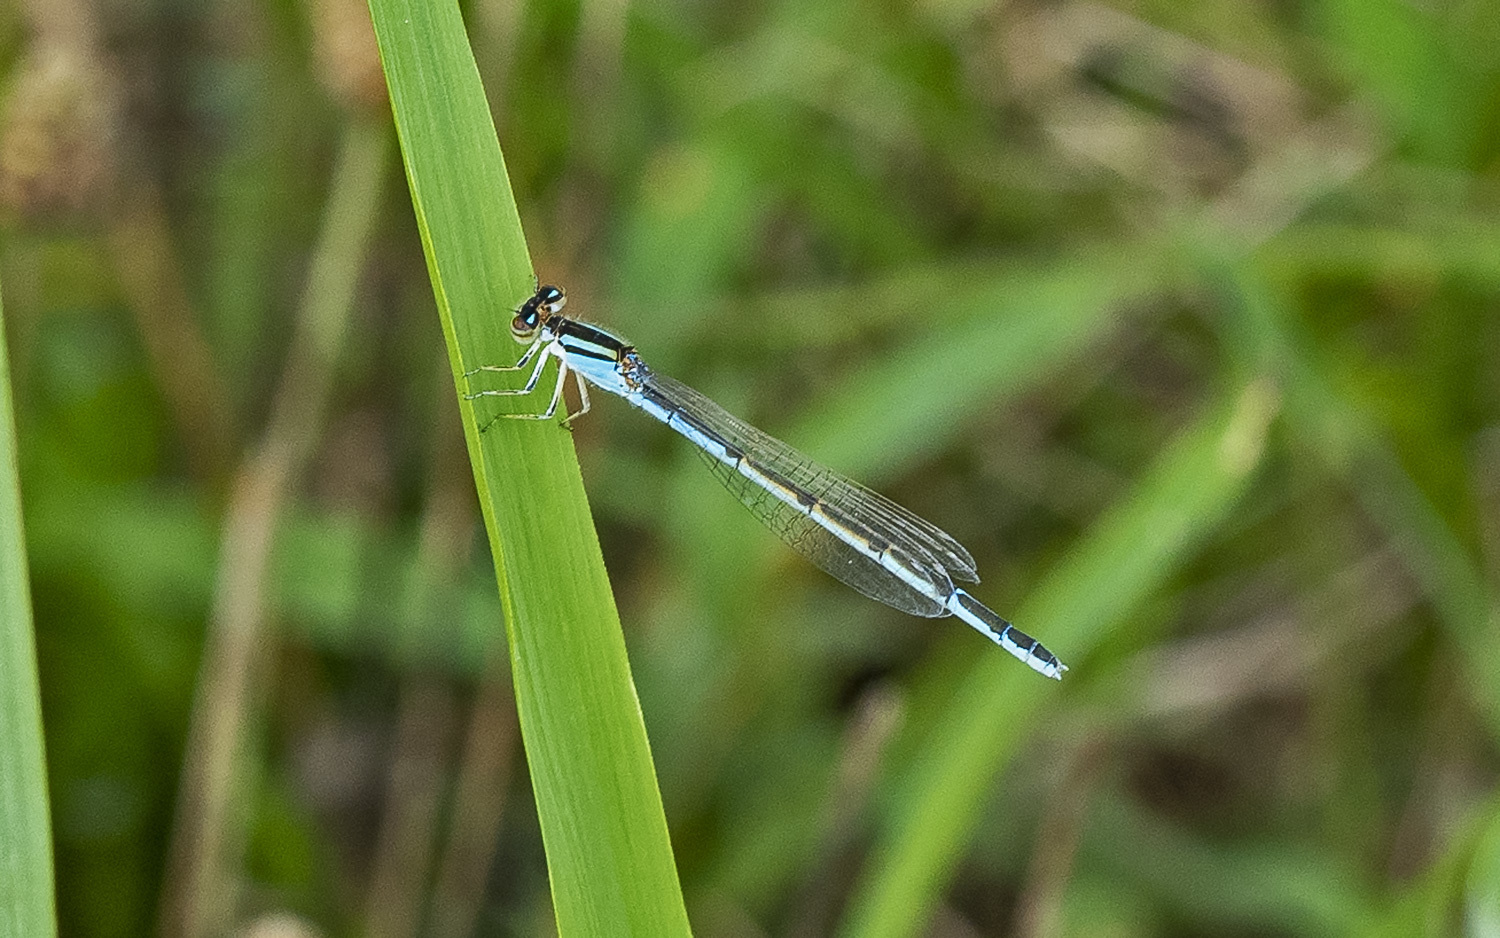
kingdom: Animalia
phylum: Arthropoda
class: Insecta
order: Odonata
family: Coenagrionidae
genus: Enallagma
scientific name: Enallagma civile
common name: Damselfly
